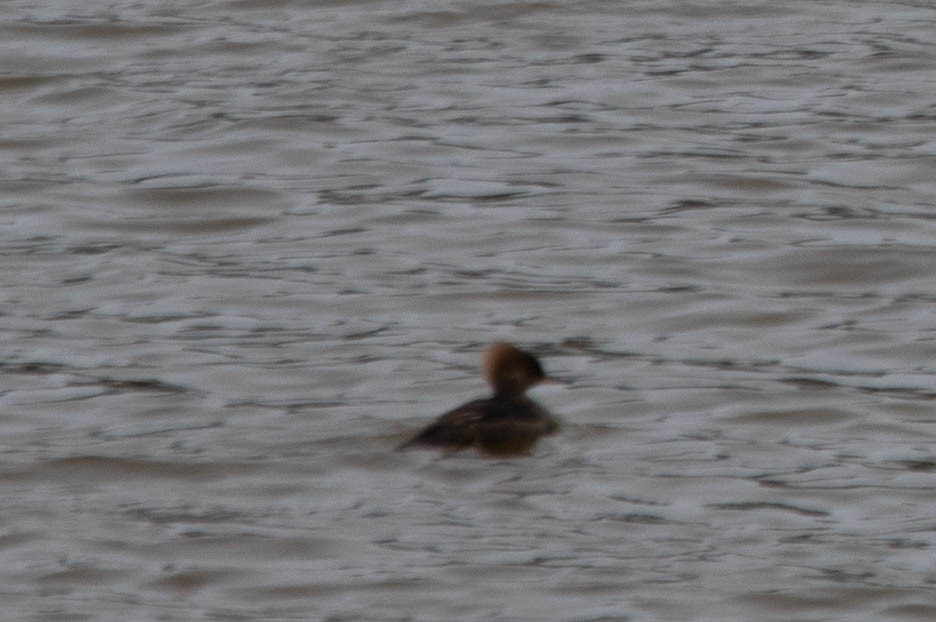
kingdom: Animalia
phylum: Chordata
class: Aves
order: Anseriformes
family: Anatidae
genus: Lophodytes
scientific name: Lophodytes cucullatus
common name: Hooded merganser
